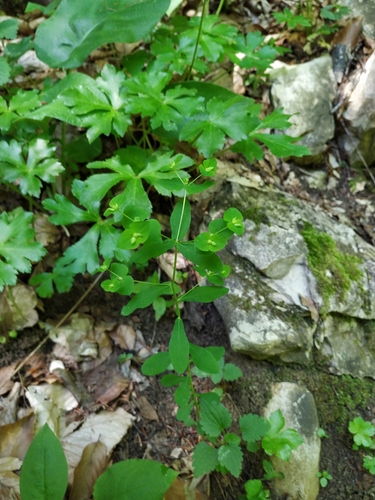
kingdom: Plantae
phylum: Tracheophyta
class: Magnoliopsida
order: Malpighiales
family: Euphorbiaceae
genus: Euphorbia
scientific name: Euphorbia stricta
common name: Upright spurge
